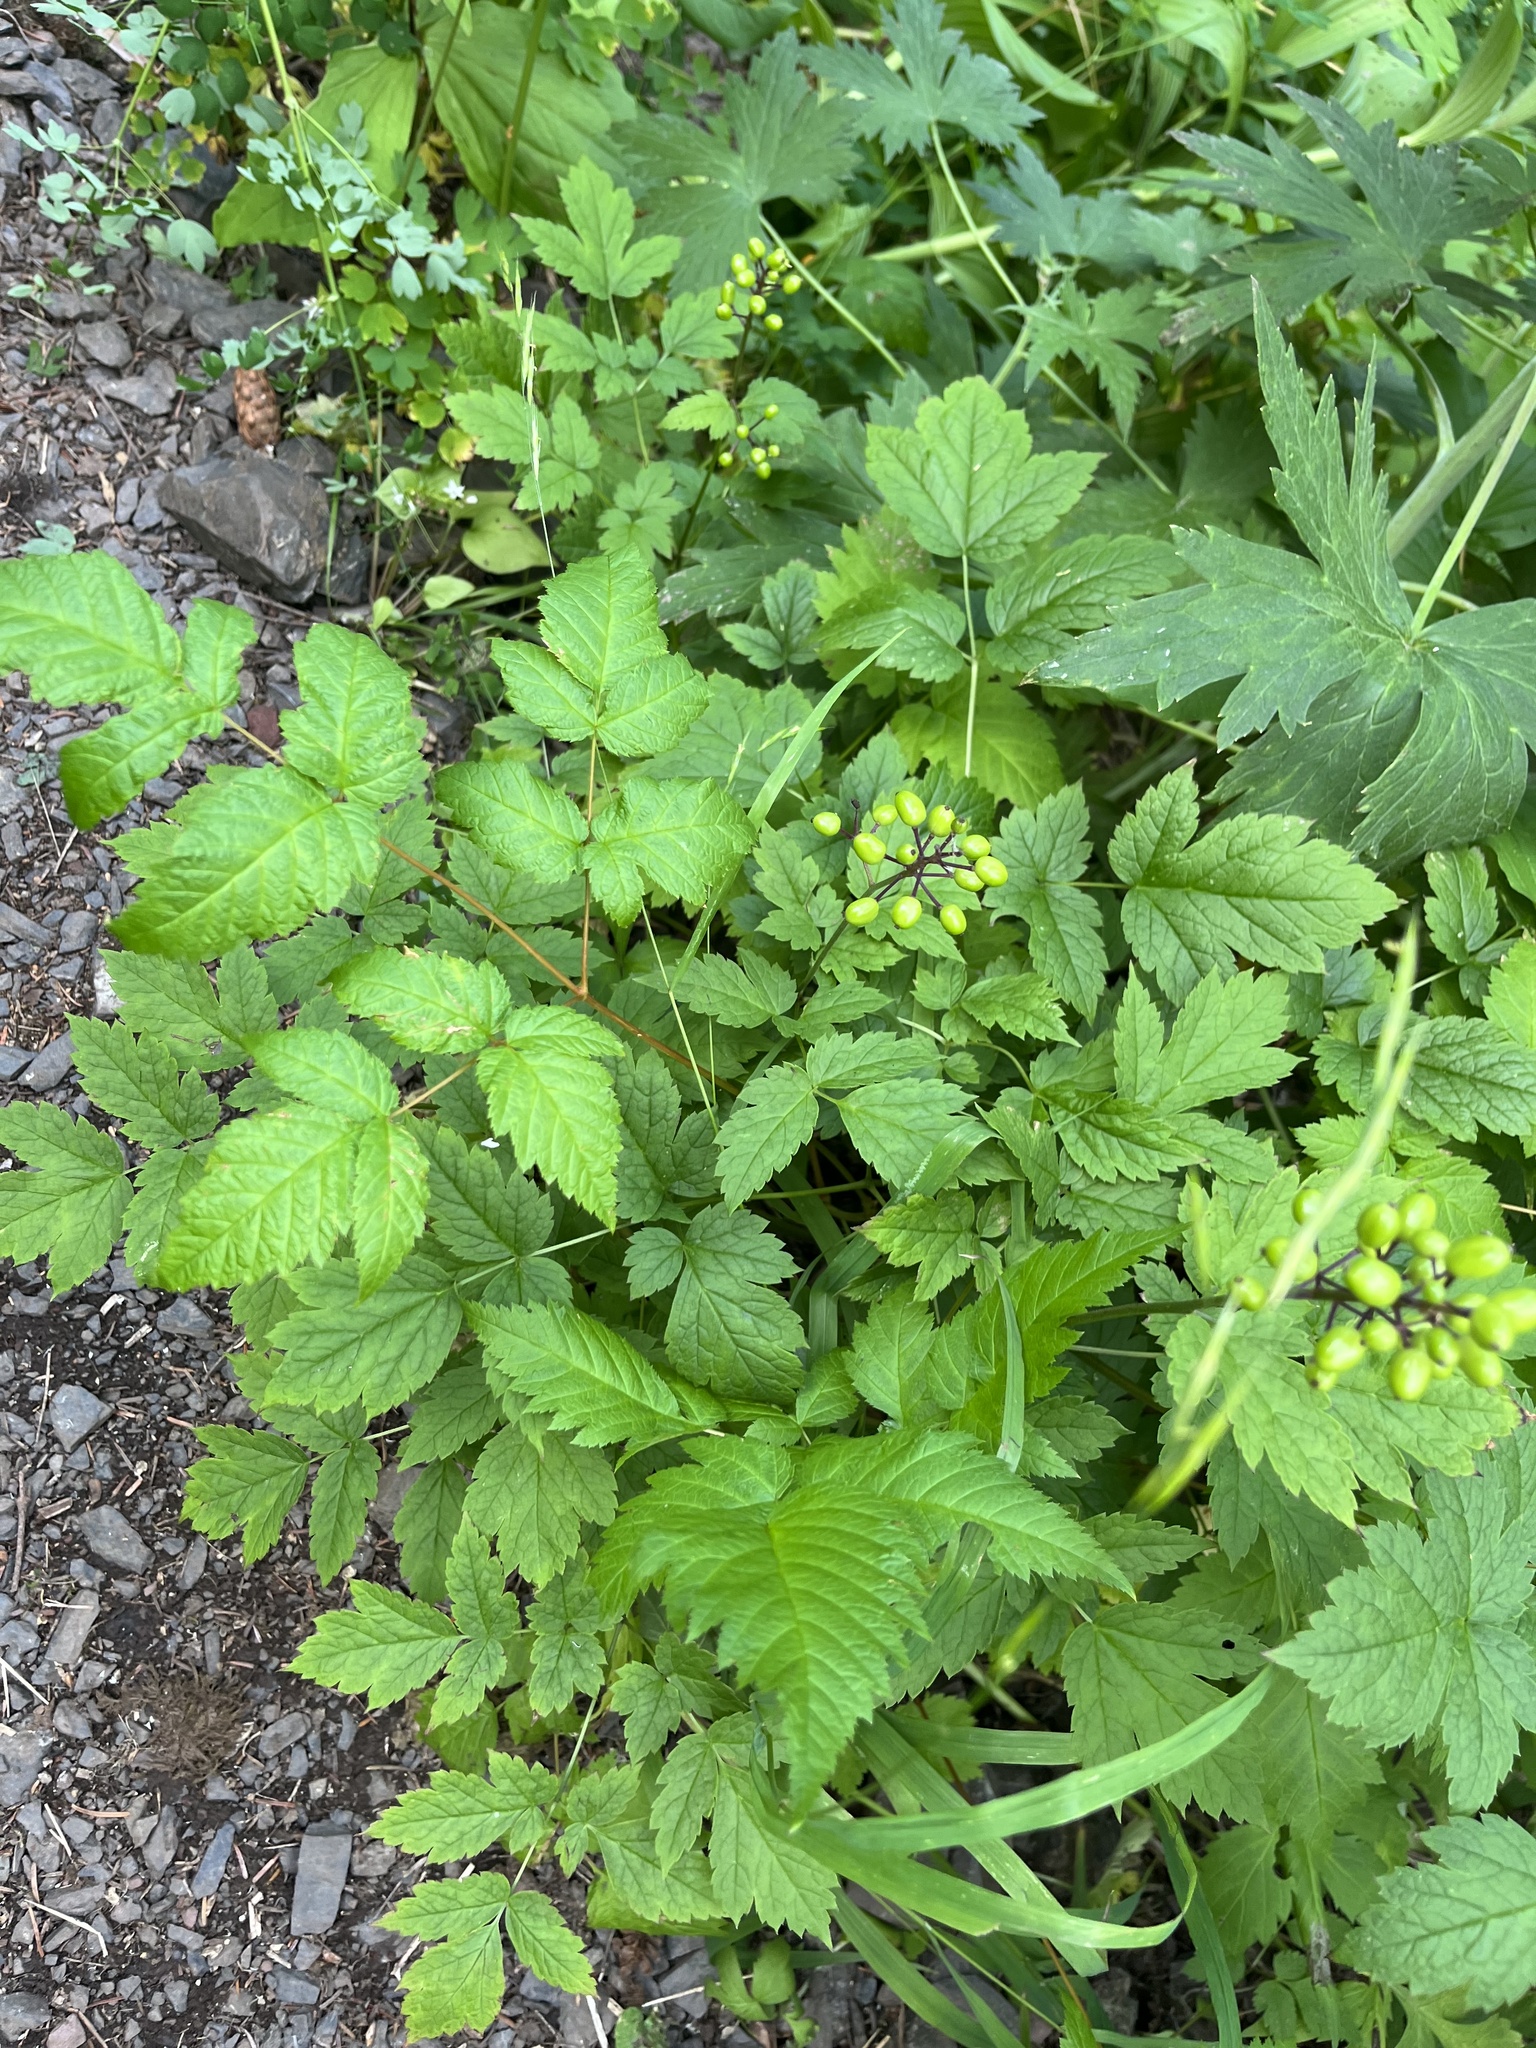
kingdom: Plantae
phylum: Tracheophyta
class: Magnoliopsida
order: Ranunculales
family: Ranunculaceae
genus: Actaea
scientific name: Actaea rubra
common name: Red baneberry
